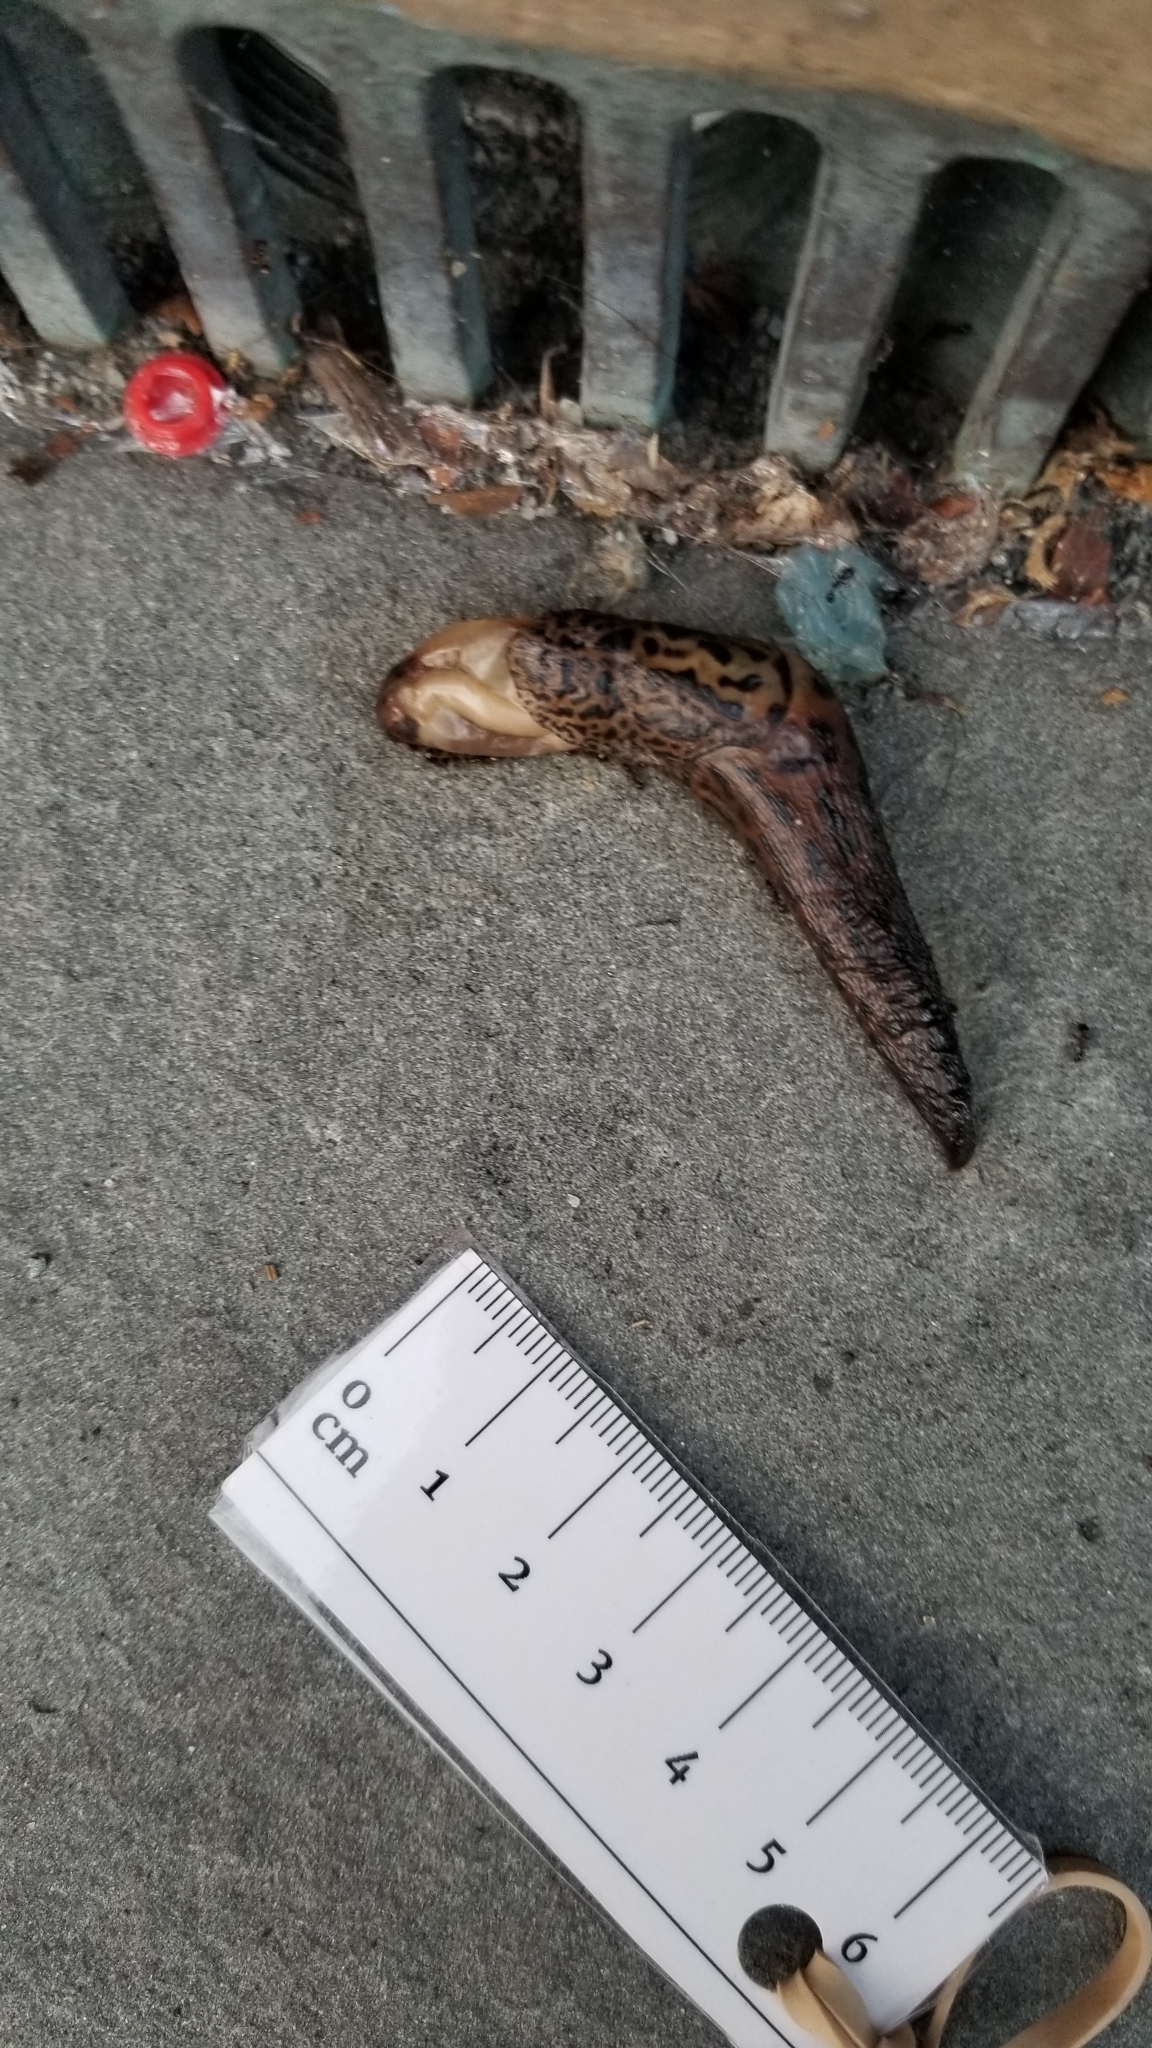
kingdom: Animalia
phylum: Mollusca
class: Gastropoda
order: Stylommatophora
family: Limacidae
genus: Limax
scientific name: Limax maximus
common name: Great grey slug
